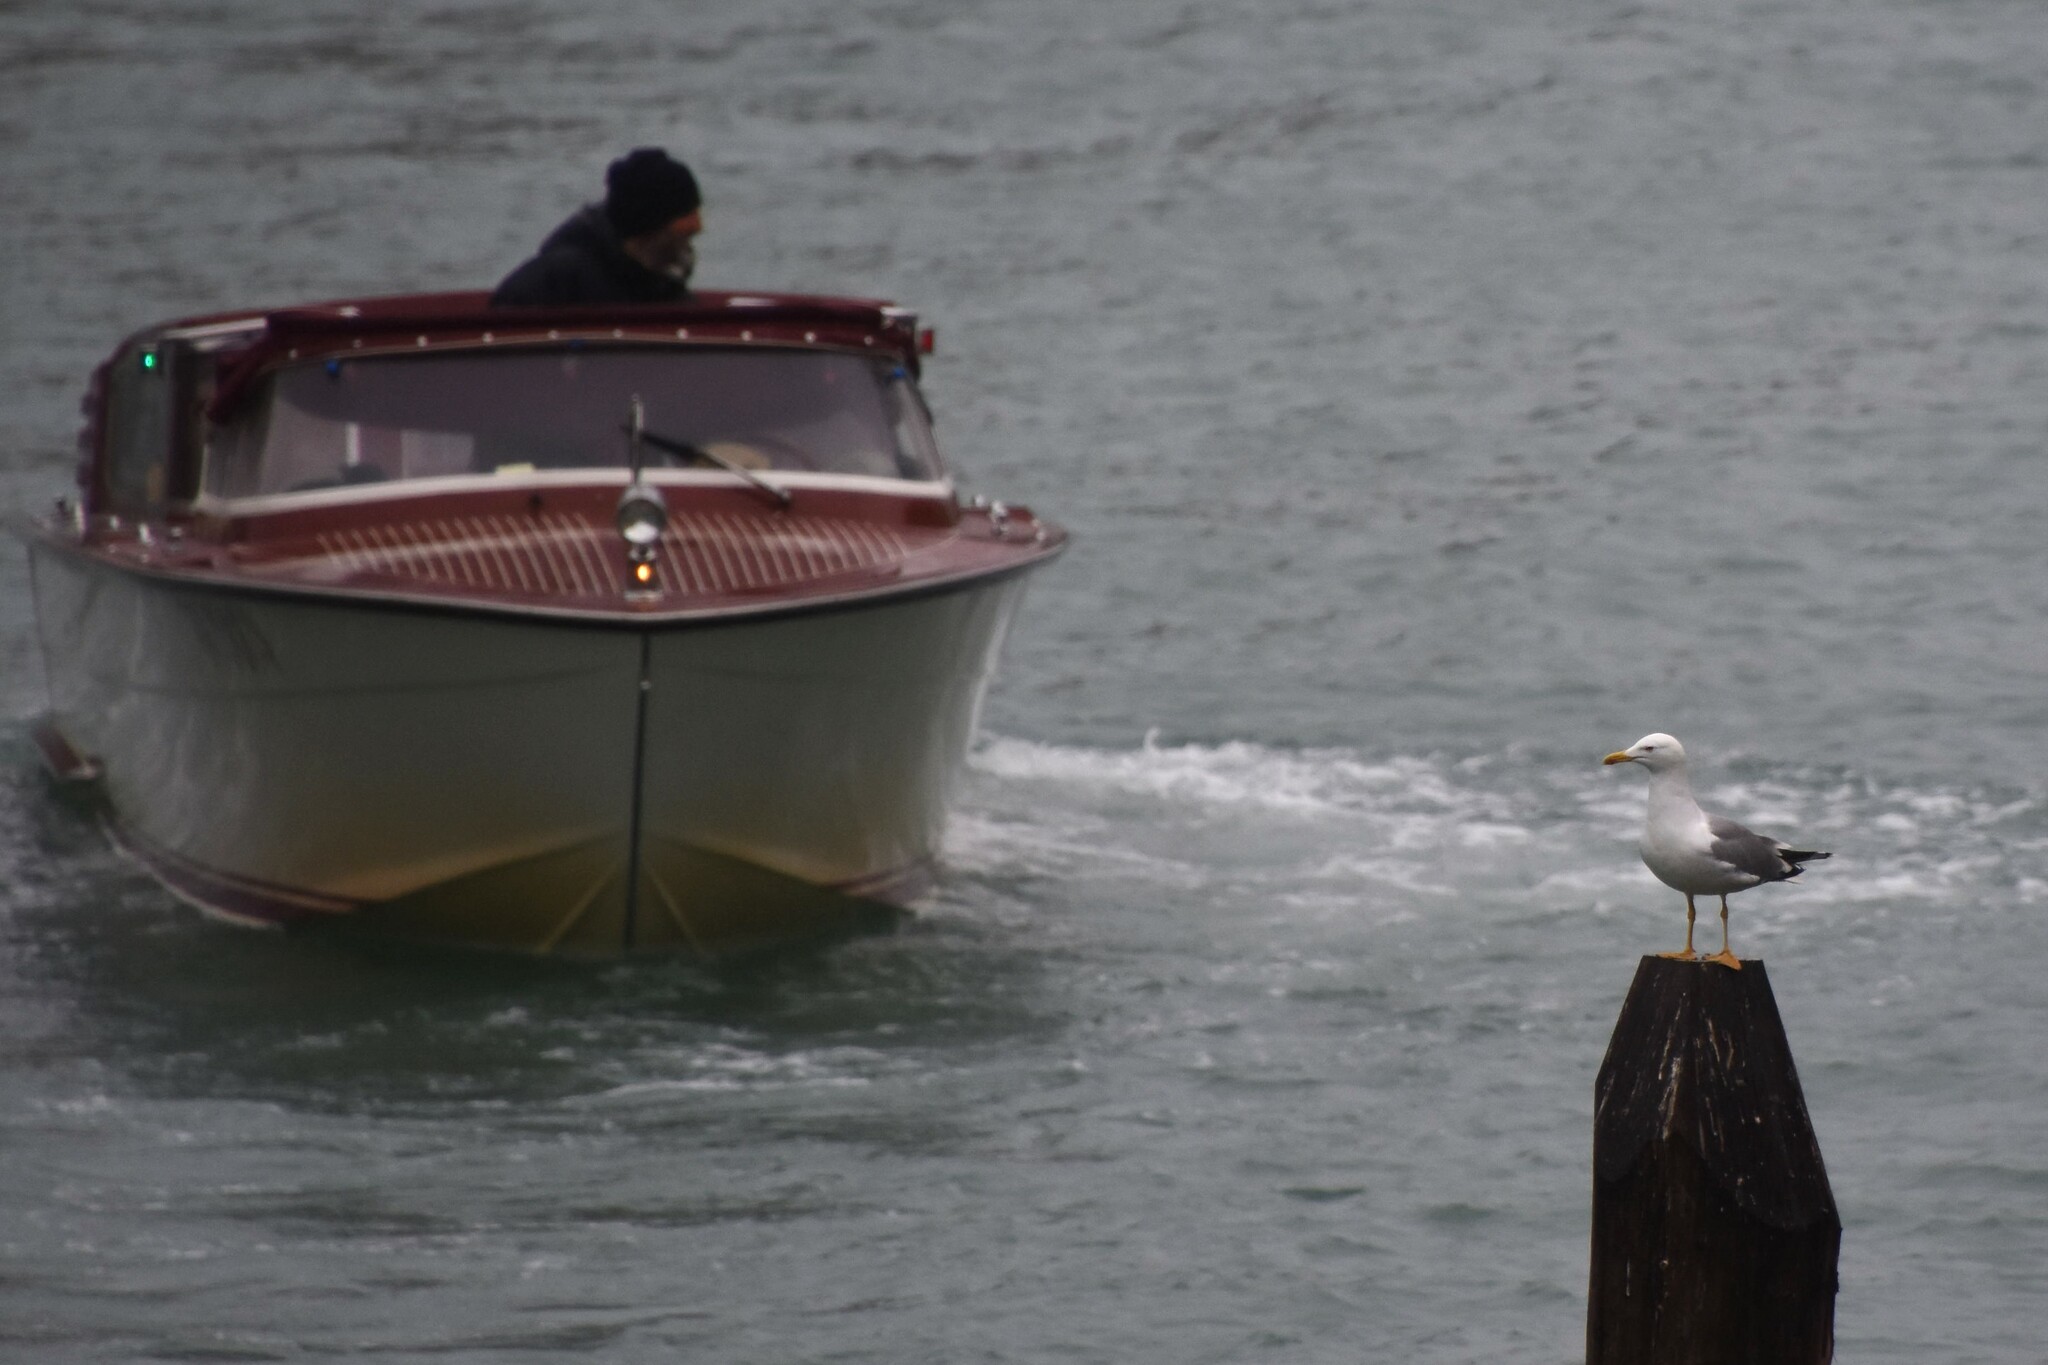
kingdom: Animalia
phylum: Chordata
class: Aves
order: Charadriiformes
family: Laridae
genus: Larus
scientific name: Larus michahellis
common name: Yellow-legged gull
